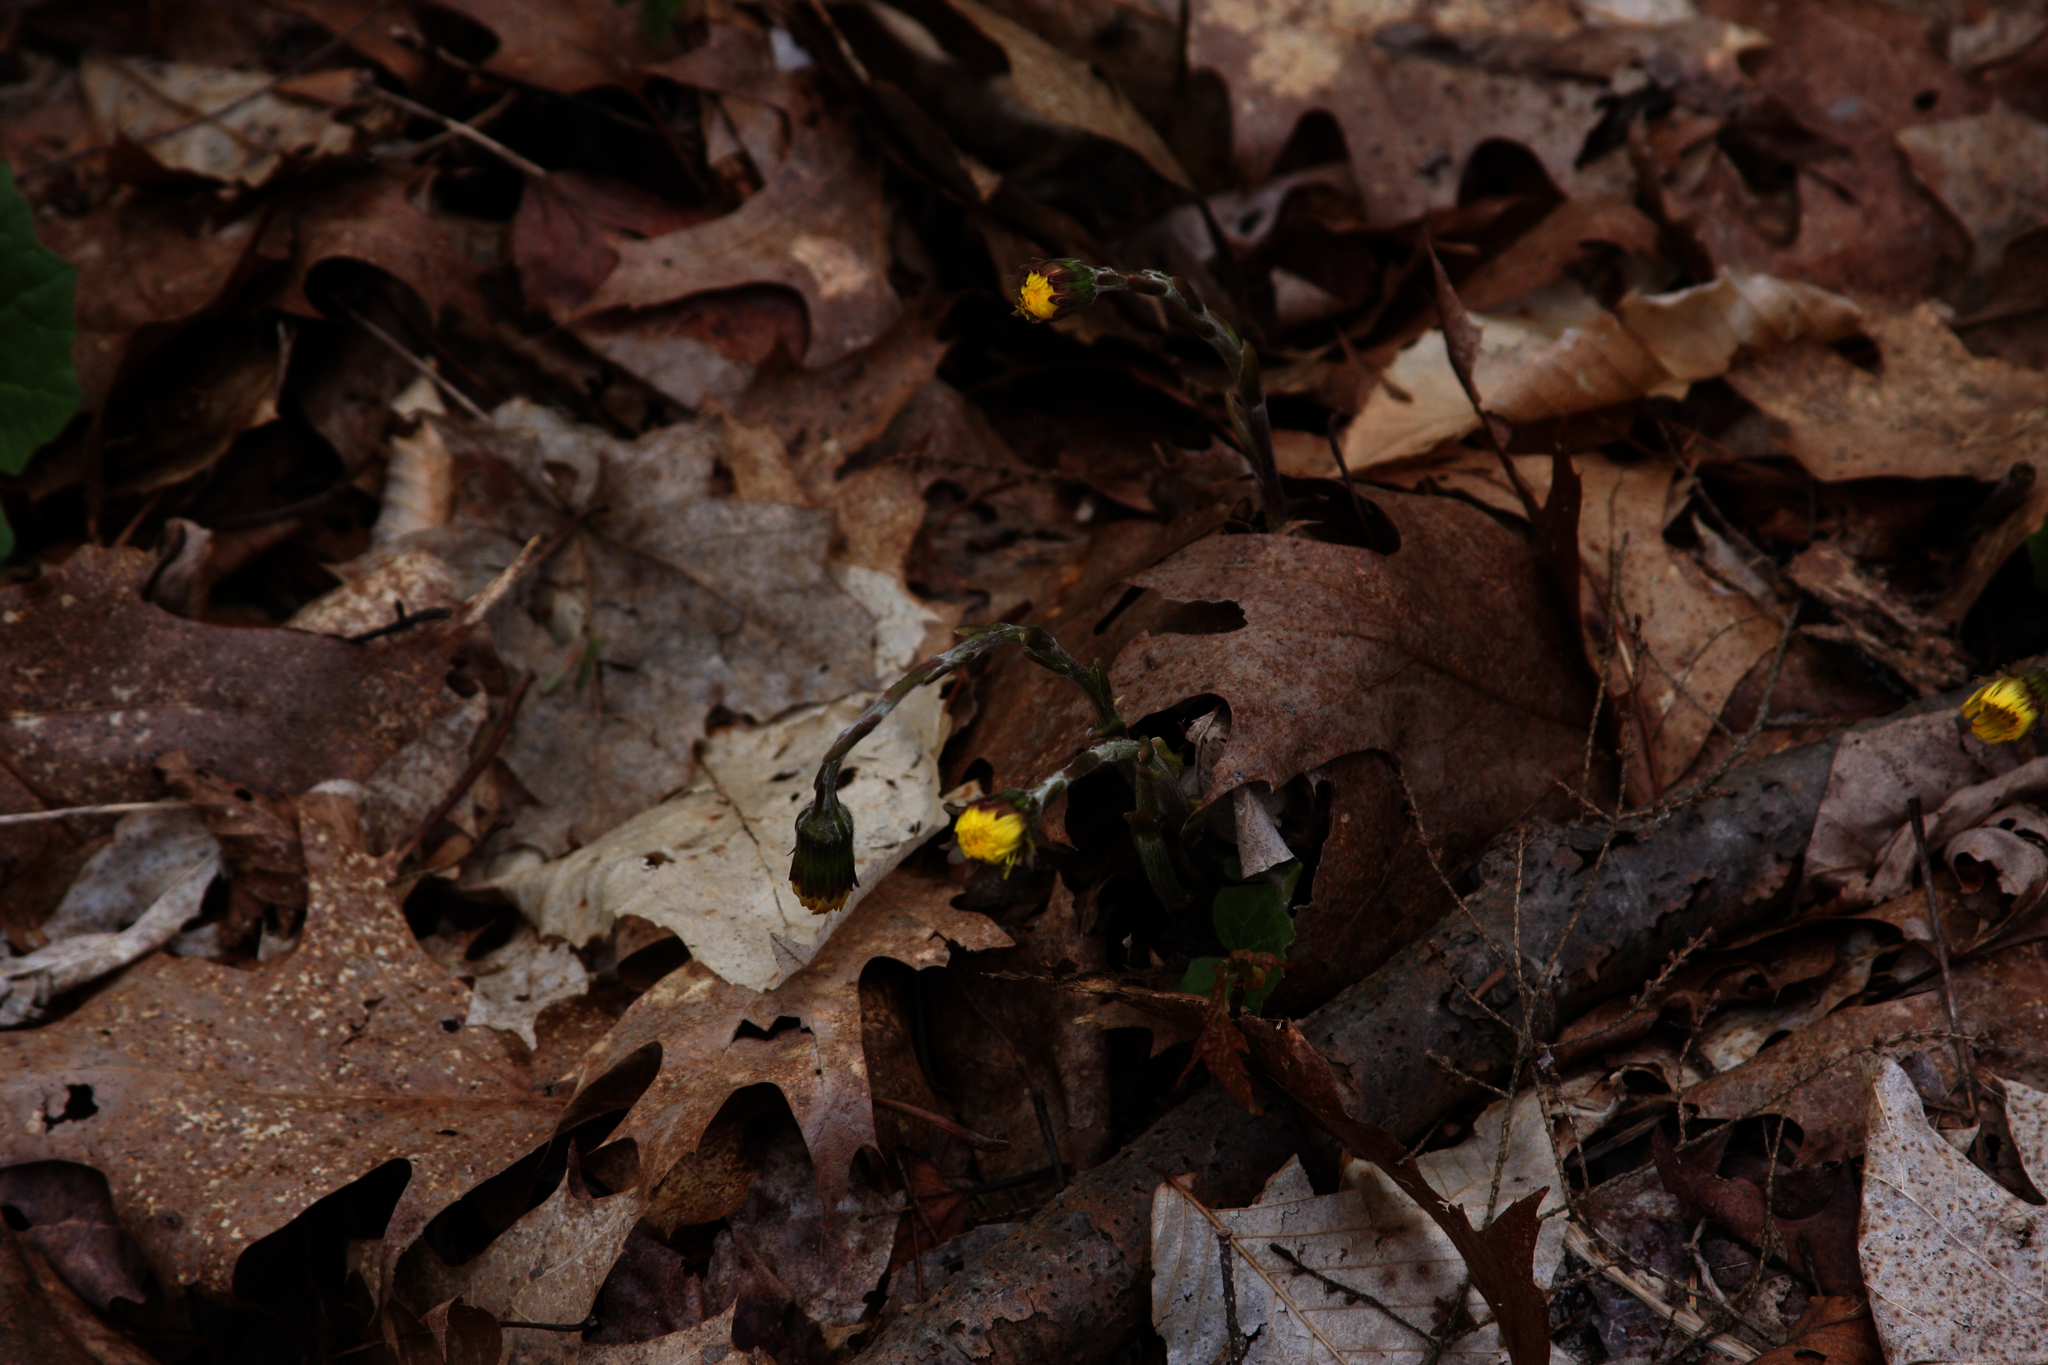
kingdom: Plantae
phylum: Tracheophyta
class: Magnoliopsida
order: Asterales
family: Asteraceae
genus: Tussilago
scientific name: Tussilago farfara
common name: Coltsfoot
